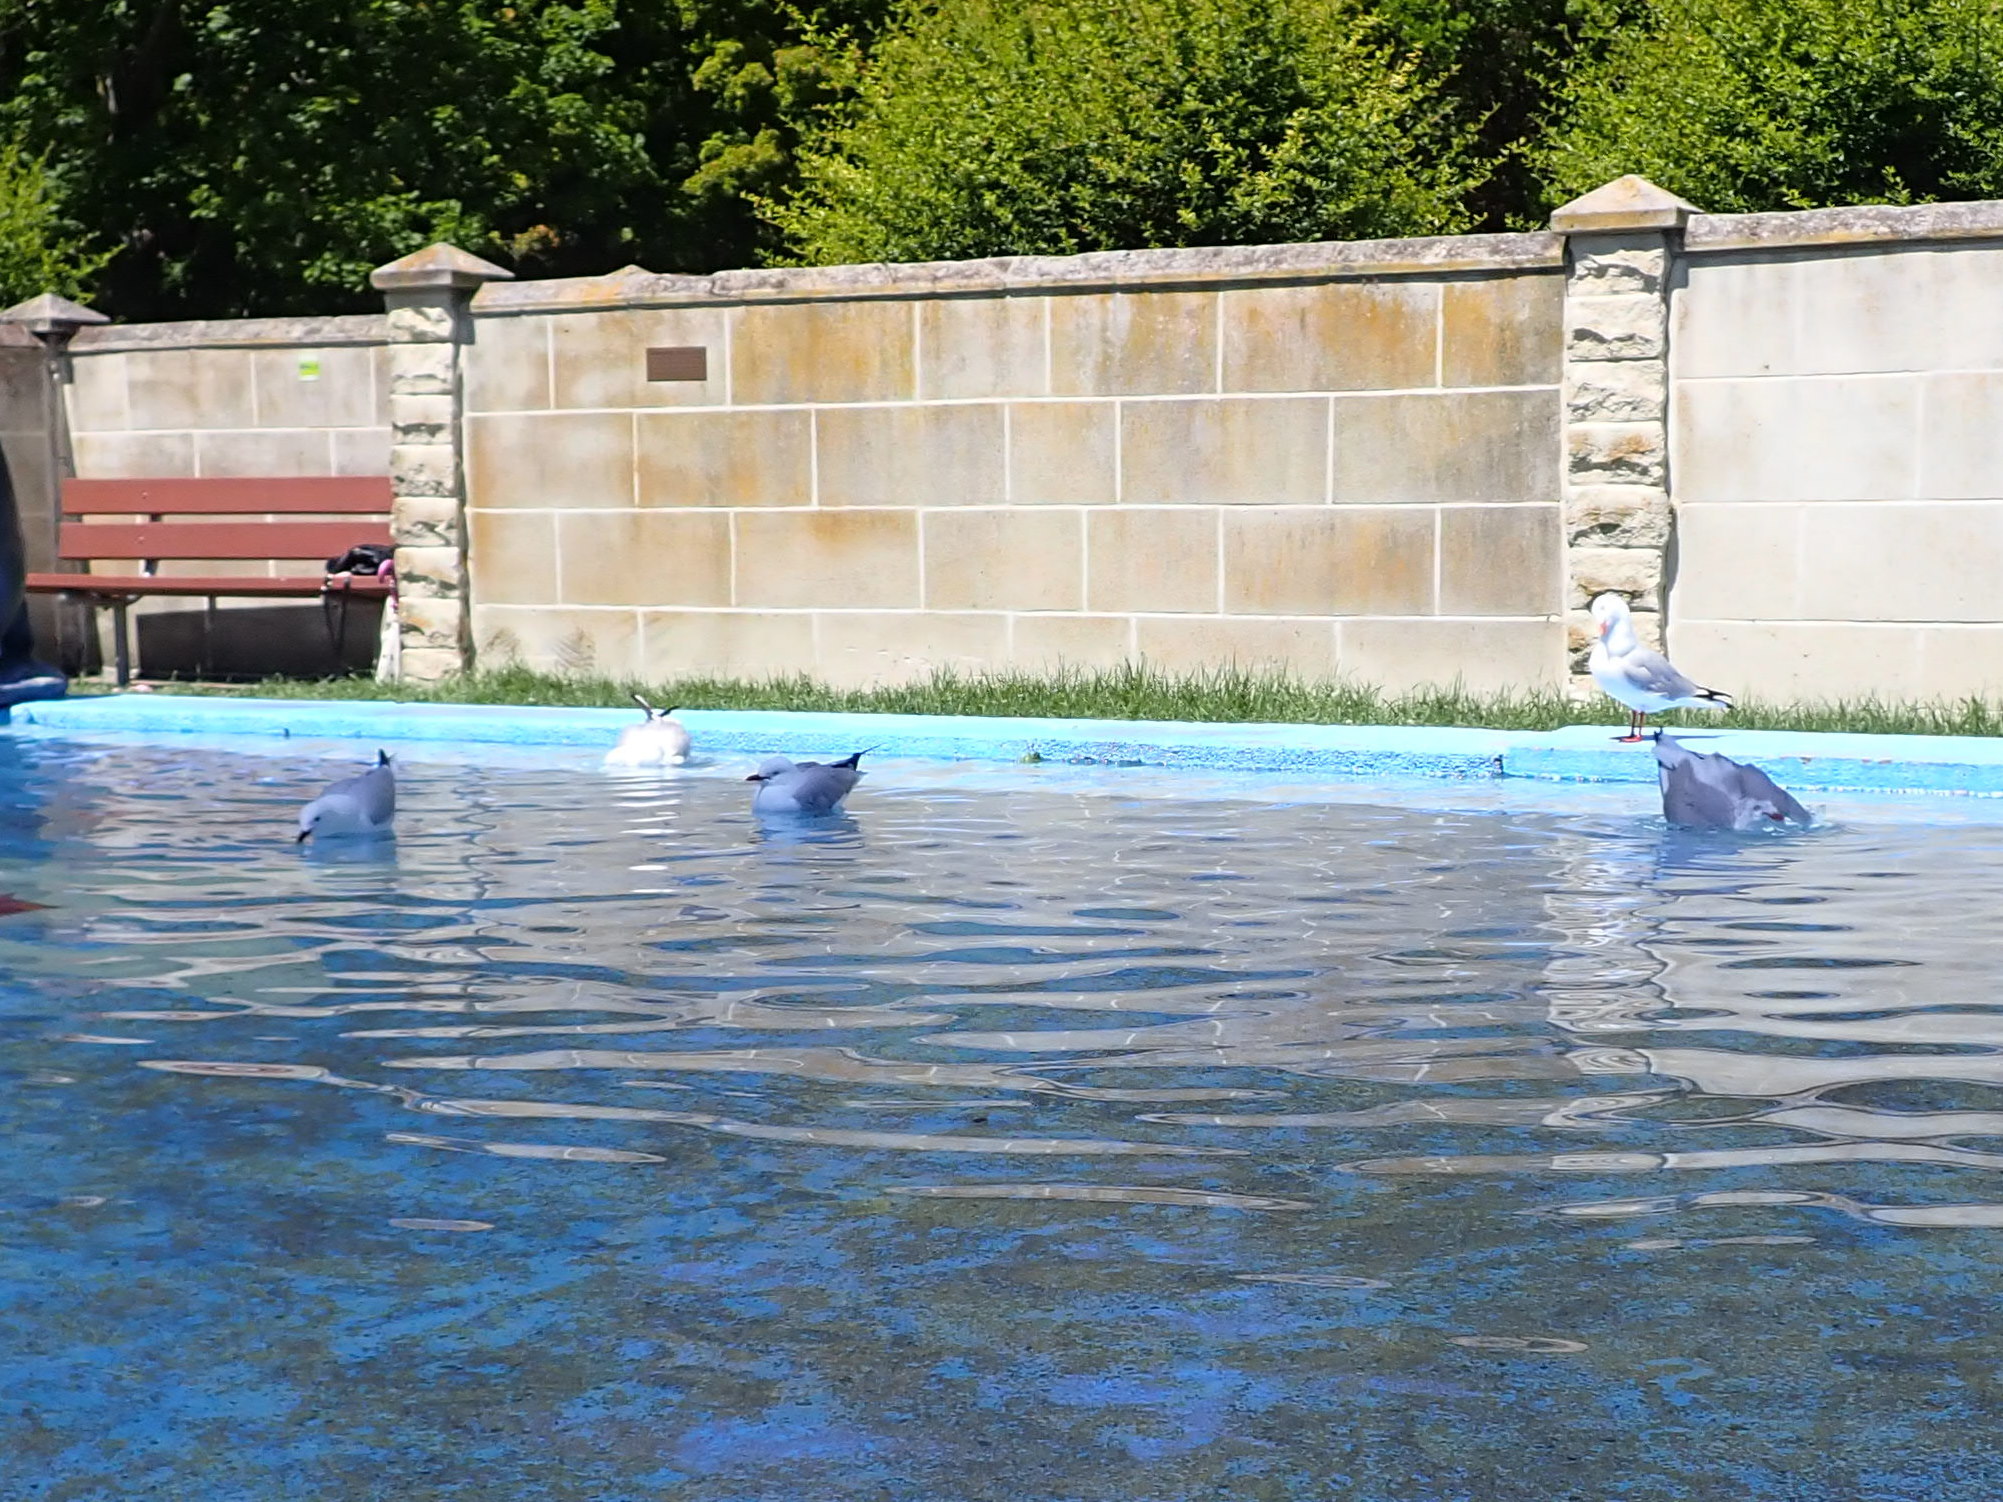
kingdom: Animalia
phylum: Chordata
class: Aves
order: Charadriiformes
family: Laridae
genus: Chroicocephalus
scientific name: Chroicocephalus novaehollandiae
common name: Silver gull
